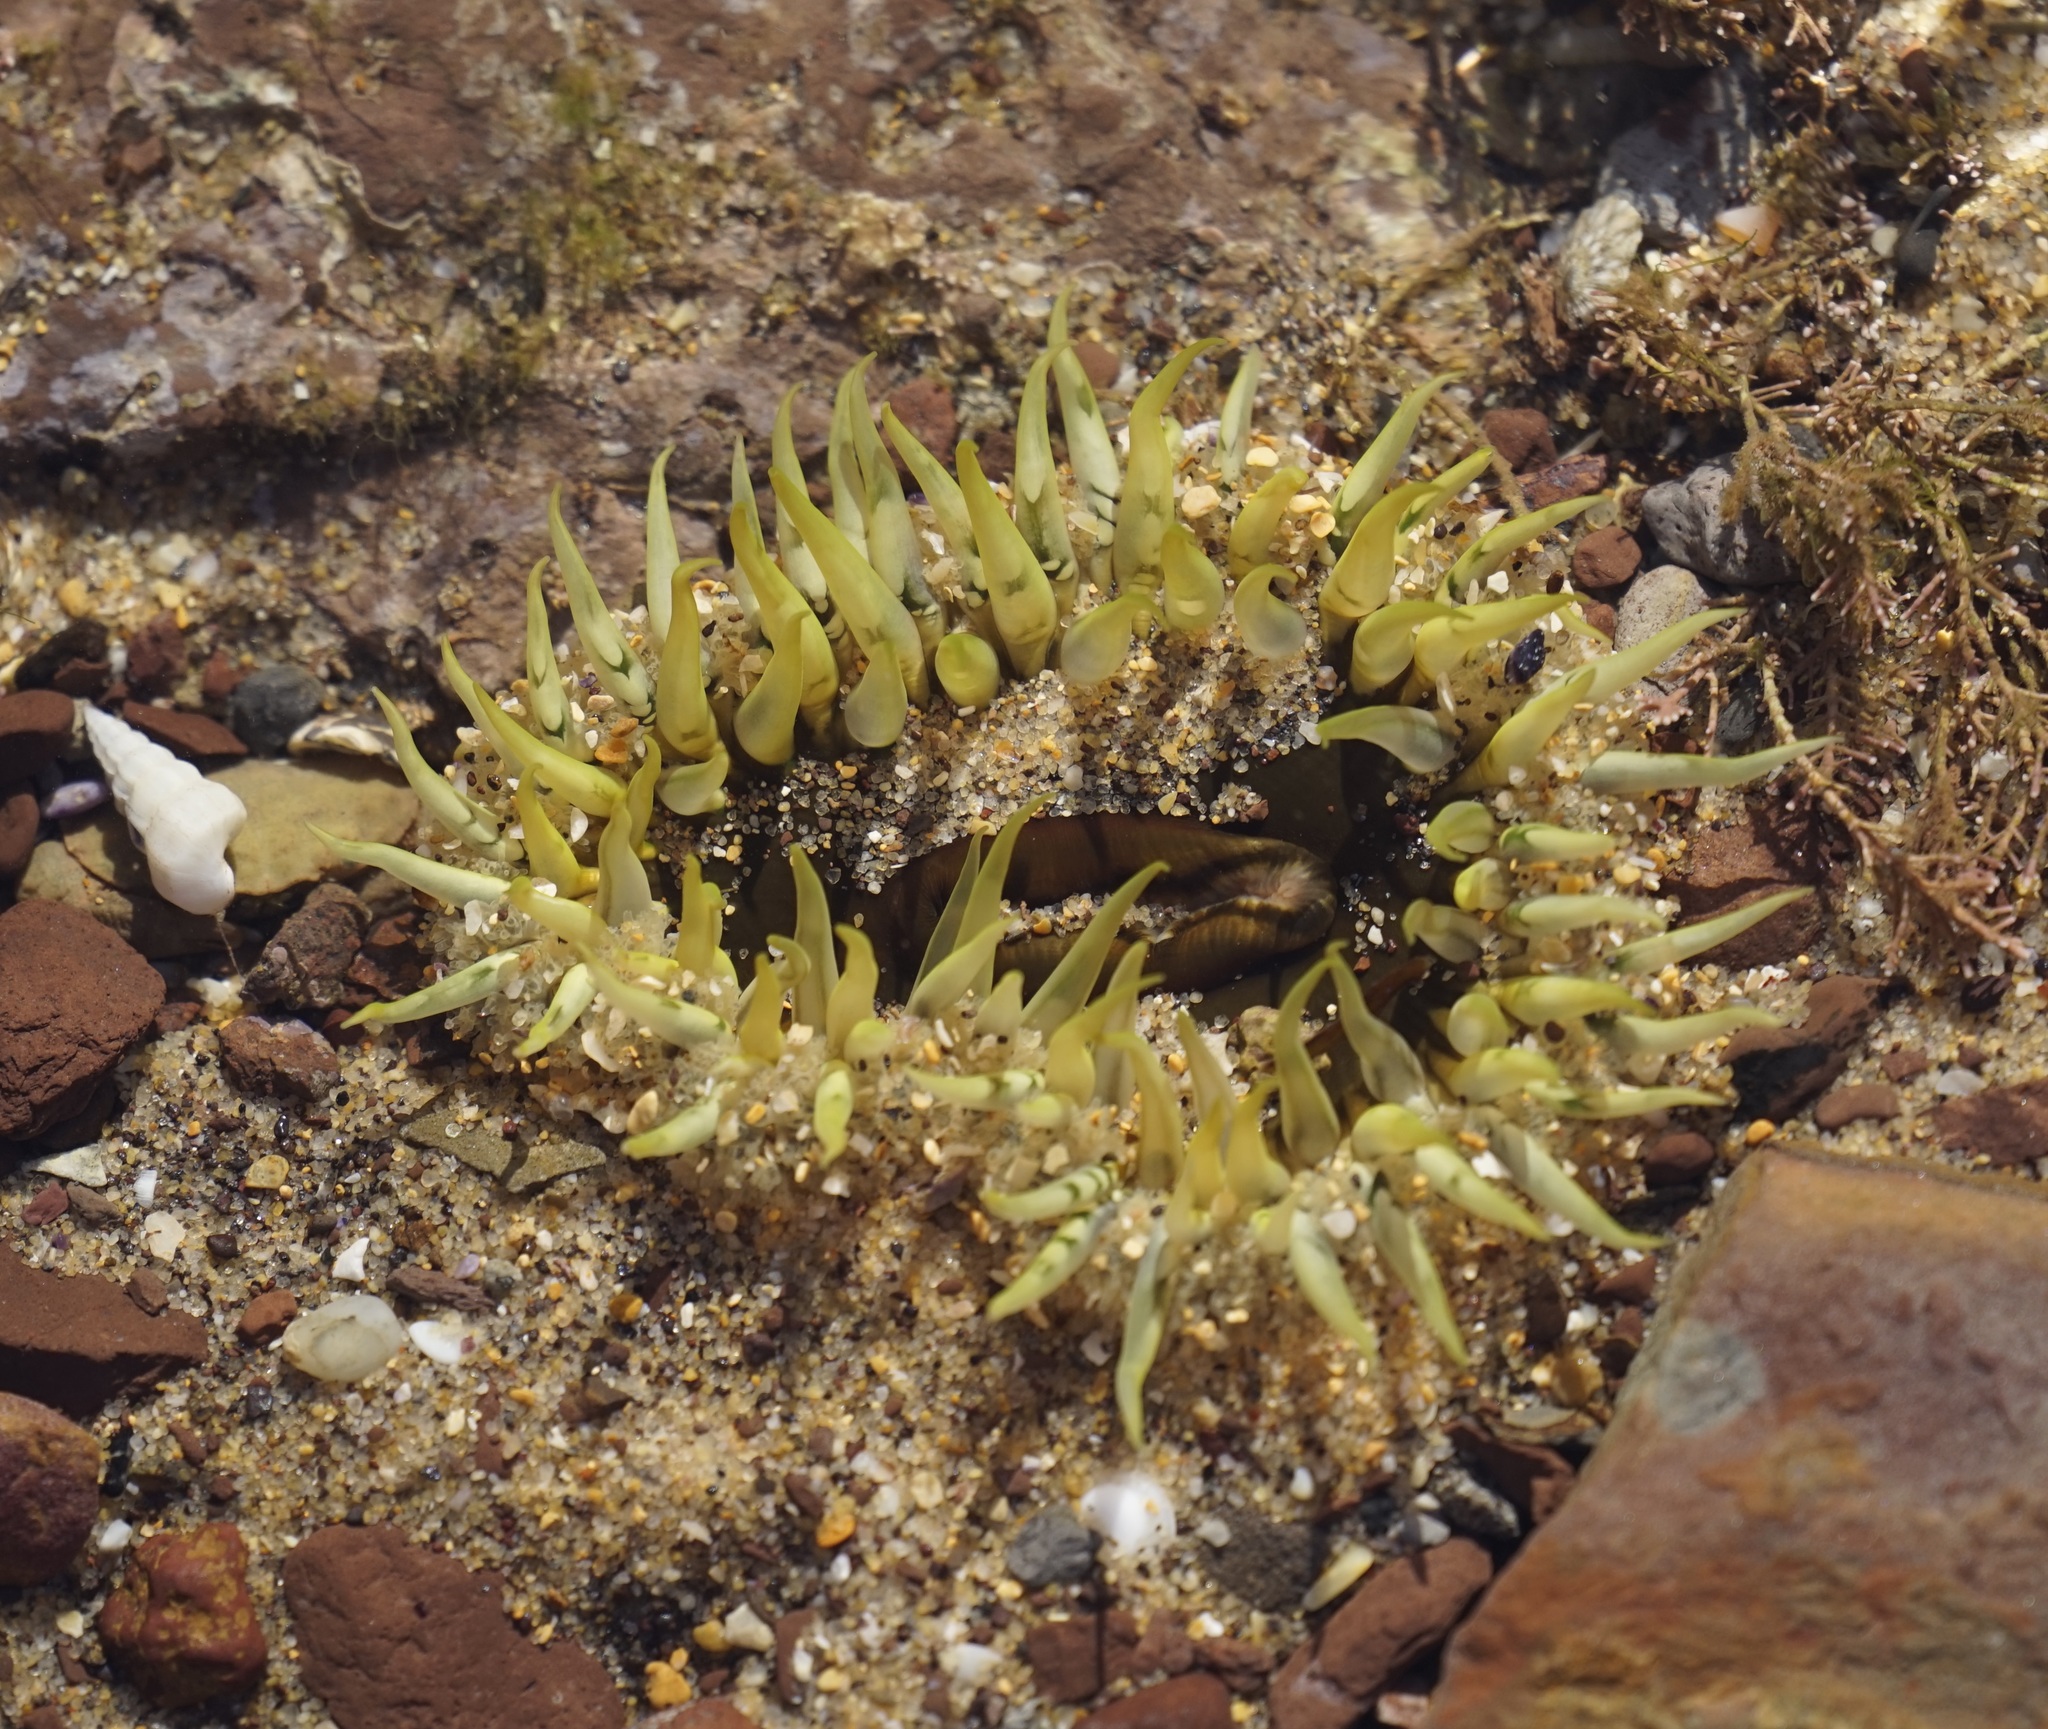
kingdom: Animalia
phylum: Cnidaria
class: Anthozoa
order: Actiniaria
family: Actiniidae
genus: Oulactis
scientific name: Oulactis muscosa
